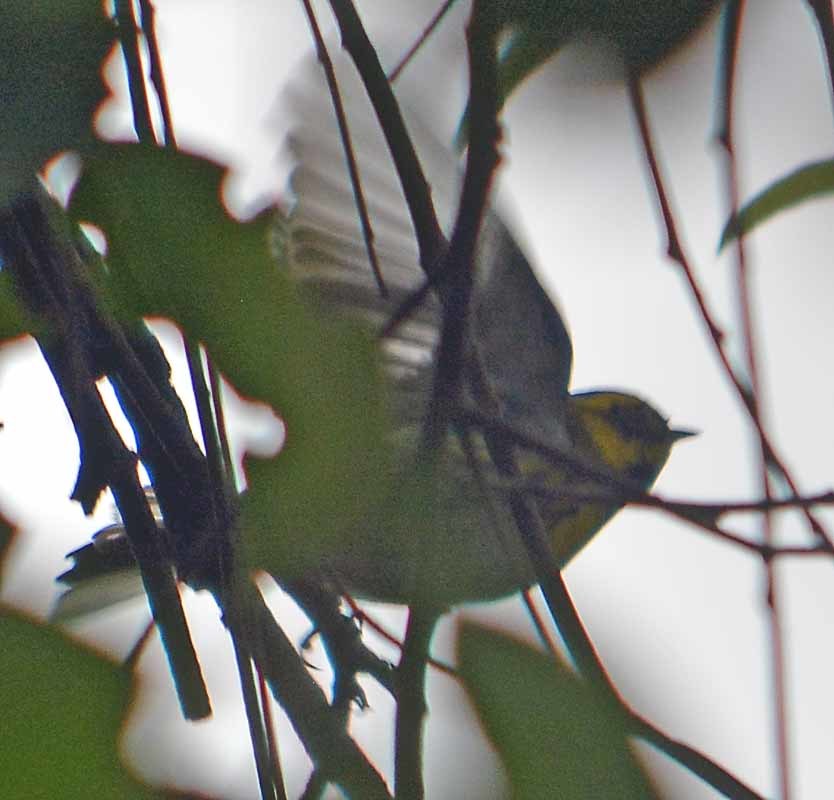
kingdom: Animalia
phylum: Chordata
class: Aves
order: Passeriformes
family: Parulidae
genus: Setophaga
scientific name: Setophaga townsendi
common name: Townsend's warbler
